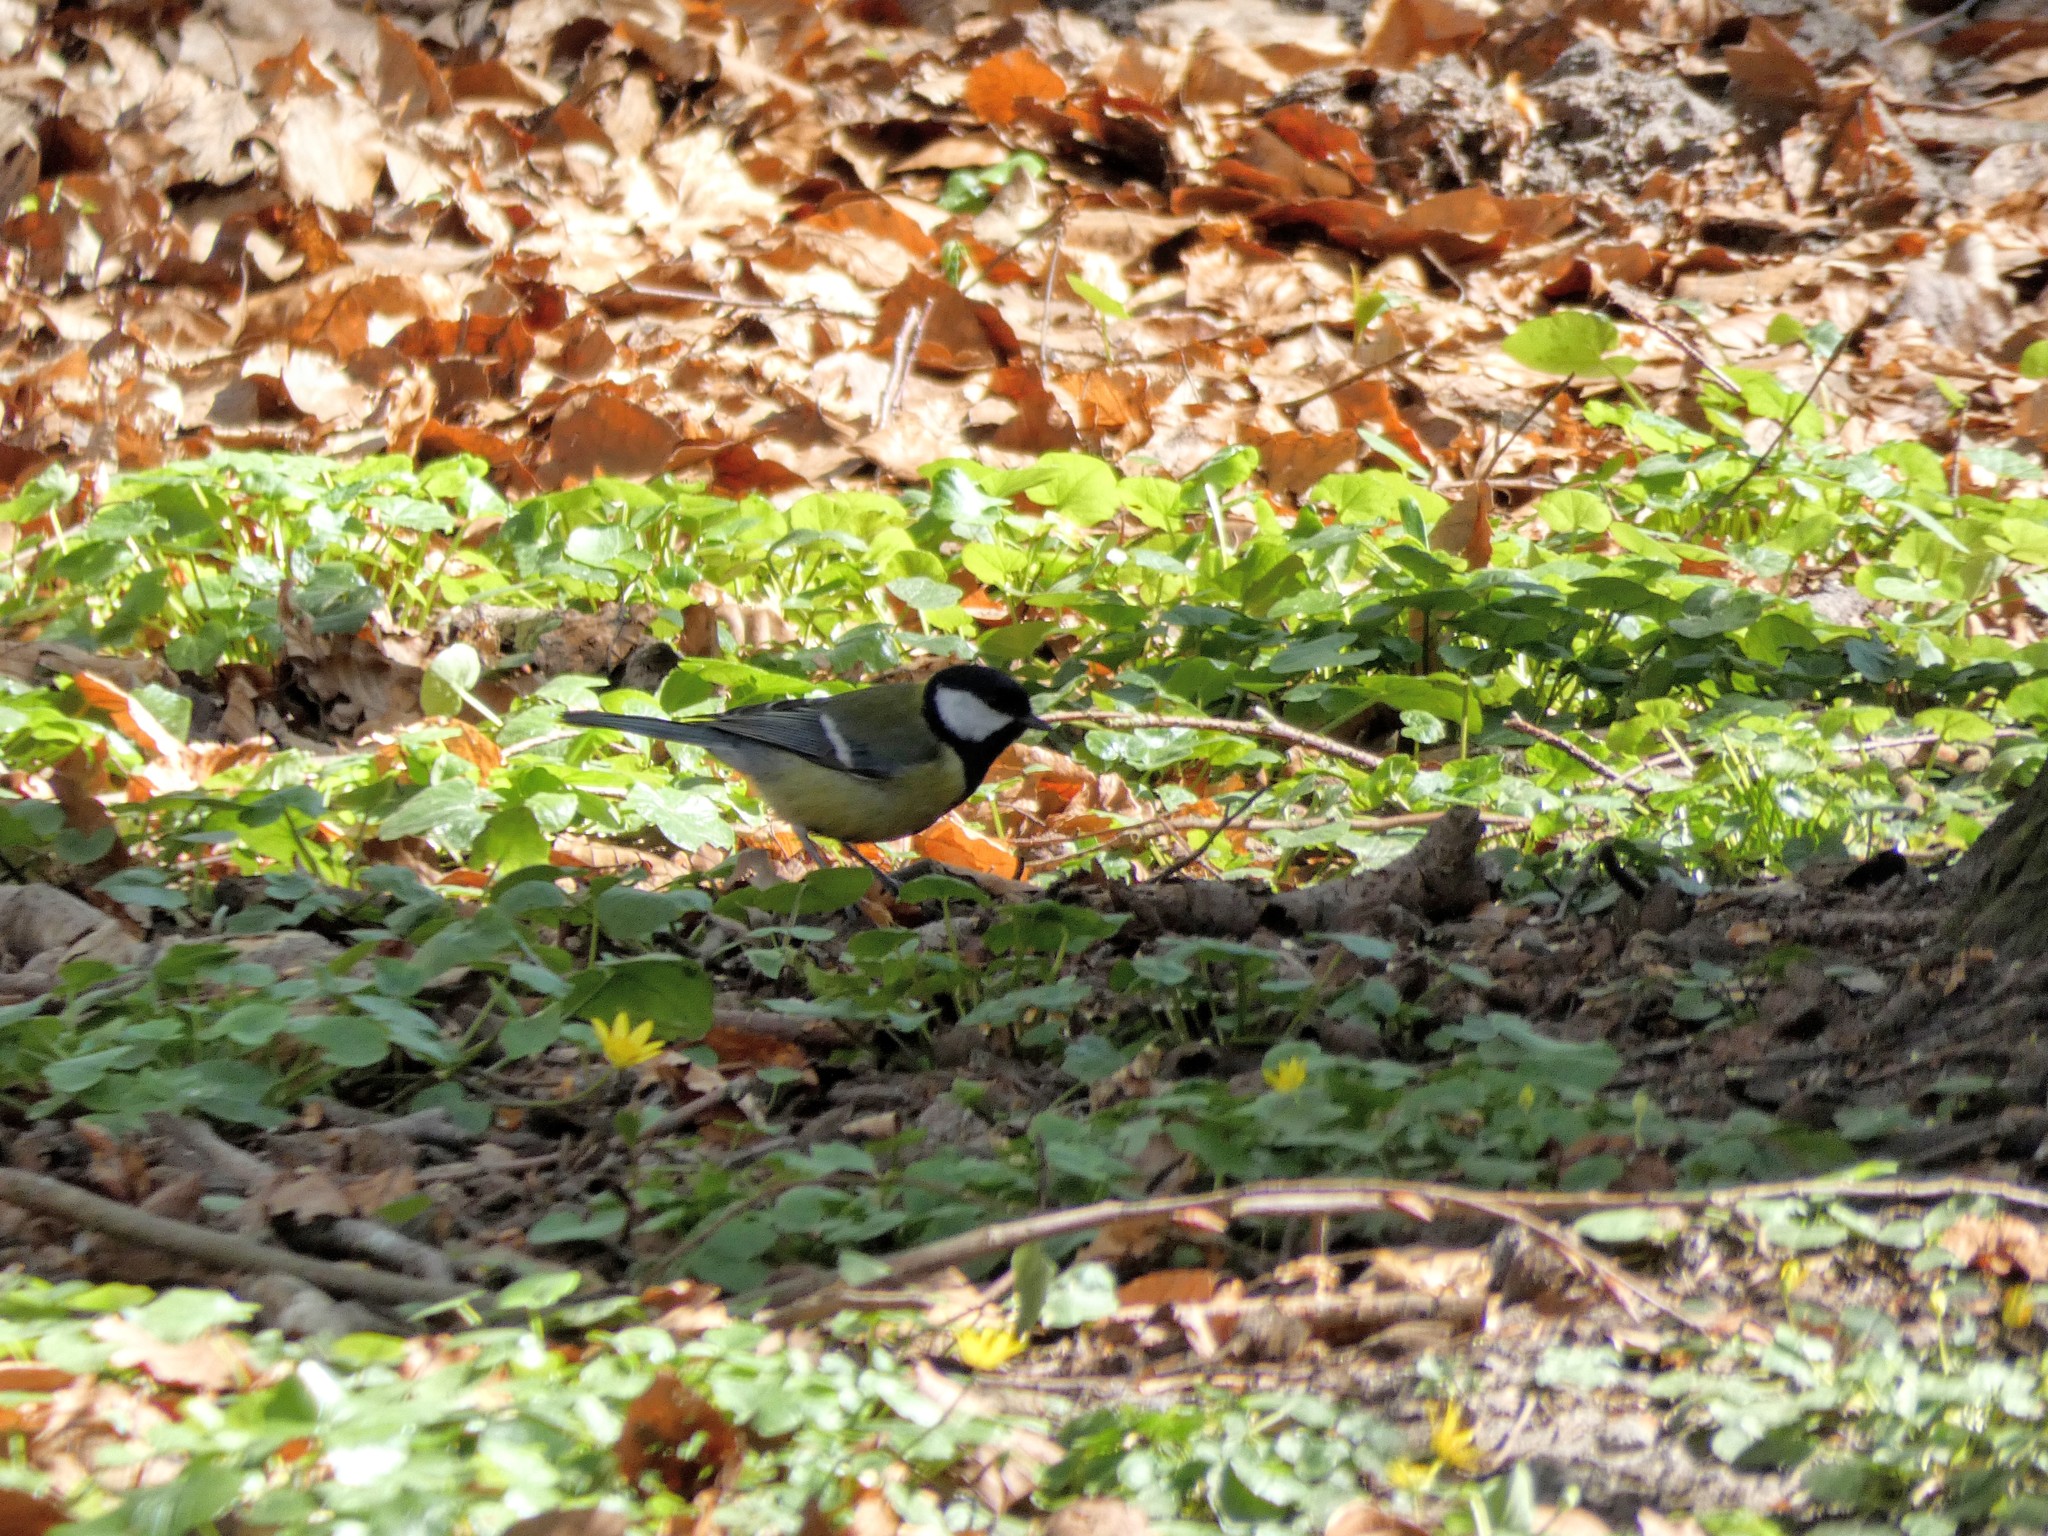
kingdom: Animalia
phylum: Chordata
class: Aves
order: Passeriformes
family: Paridae
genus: Parus
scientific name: Parus major
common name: Great tit
